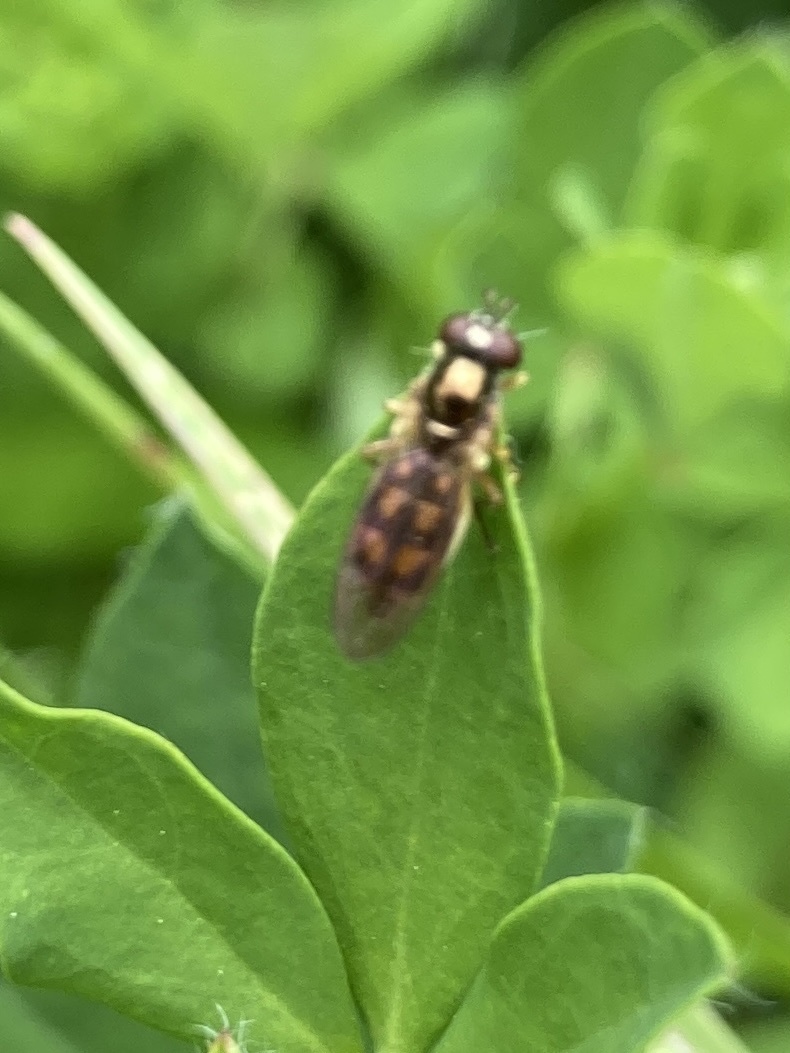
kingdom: Animalia
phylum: Arthropoda
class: Insecta
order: Diptera
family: Syrphidae
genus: Melanostoma
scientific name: Melanostoma fasciatum
